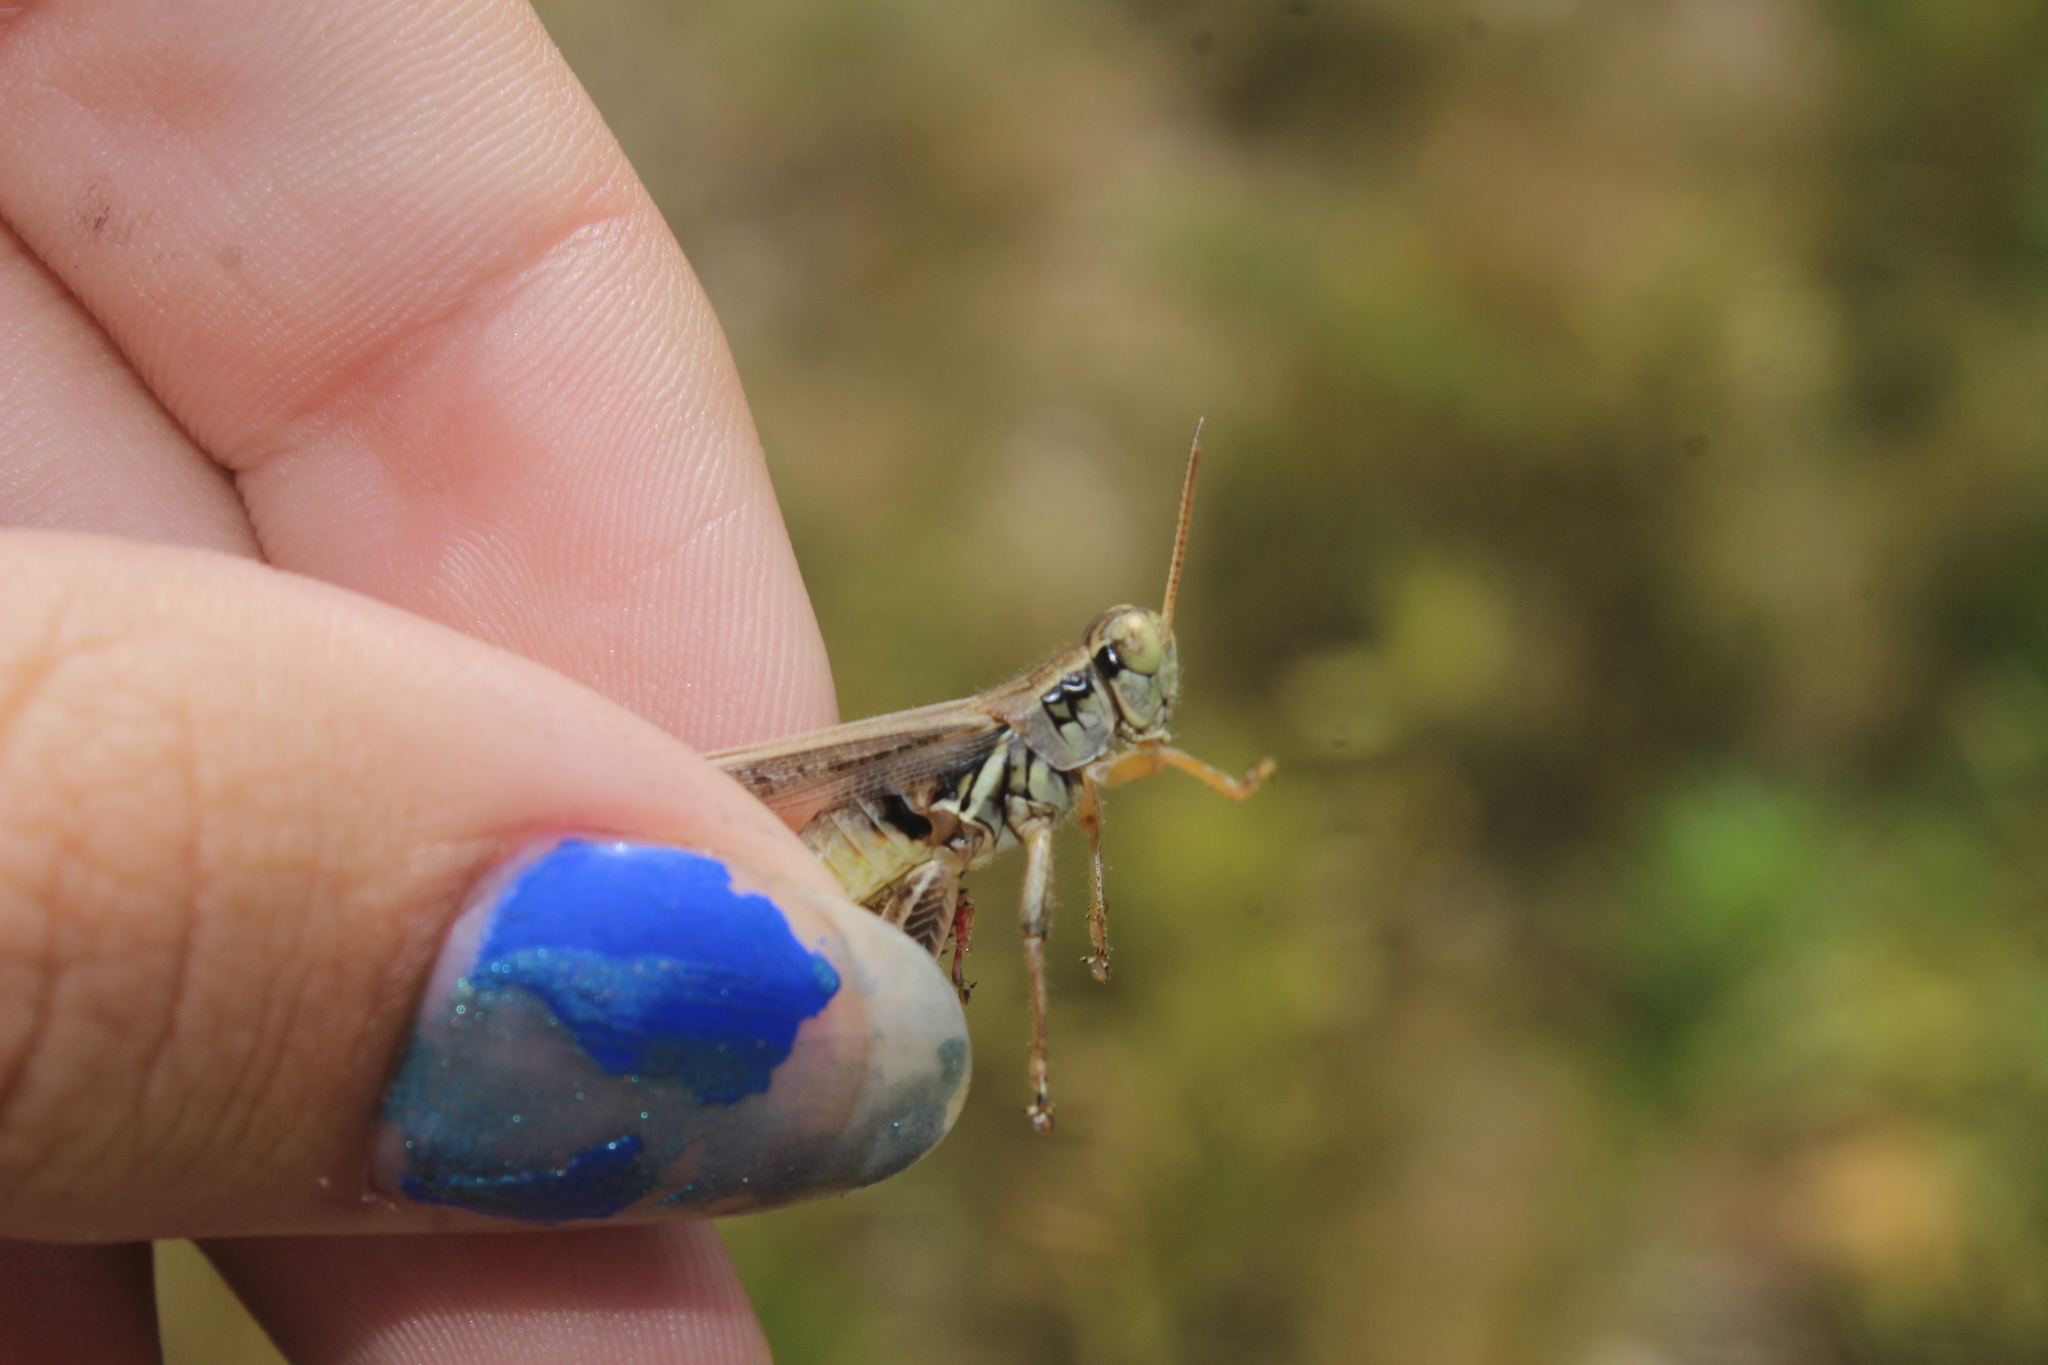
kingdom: Animalia
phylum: Arthropoda
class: Insecta
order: Orthoptera
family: Acrididae
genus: Melanoplus
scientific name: Melanoplus
